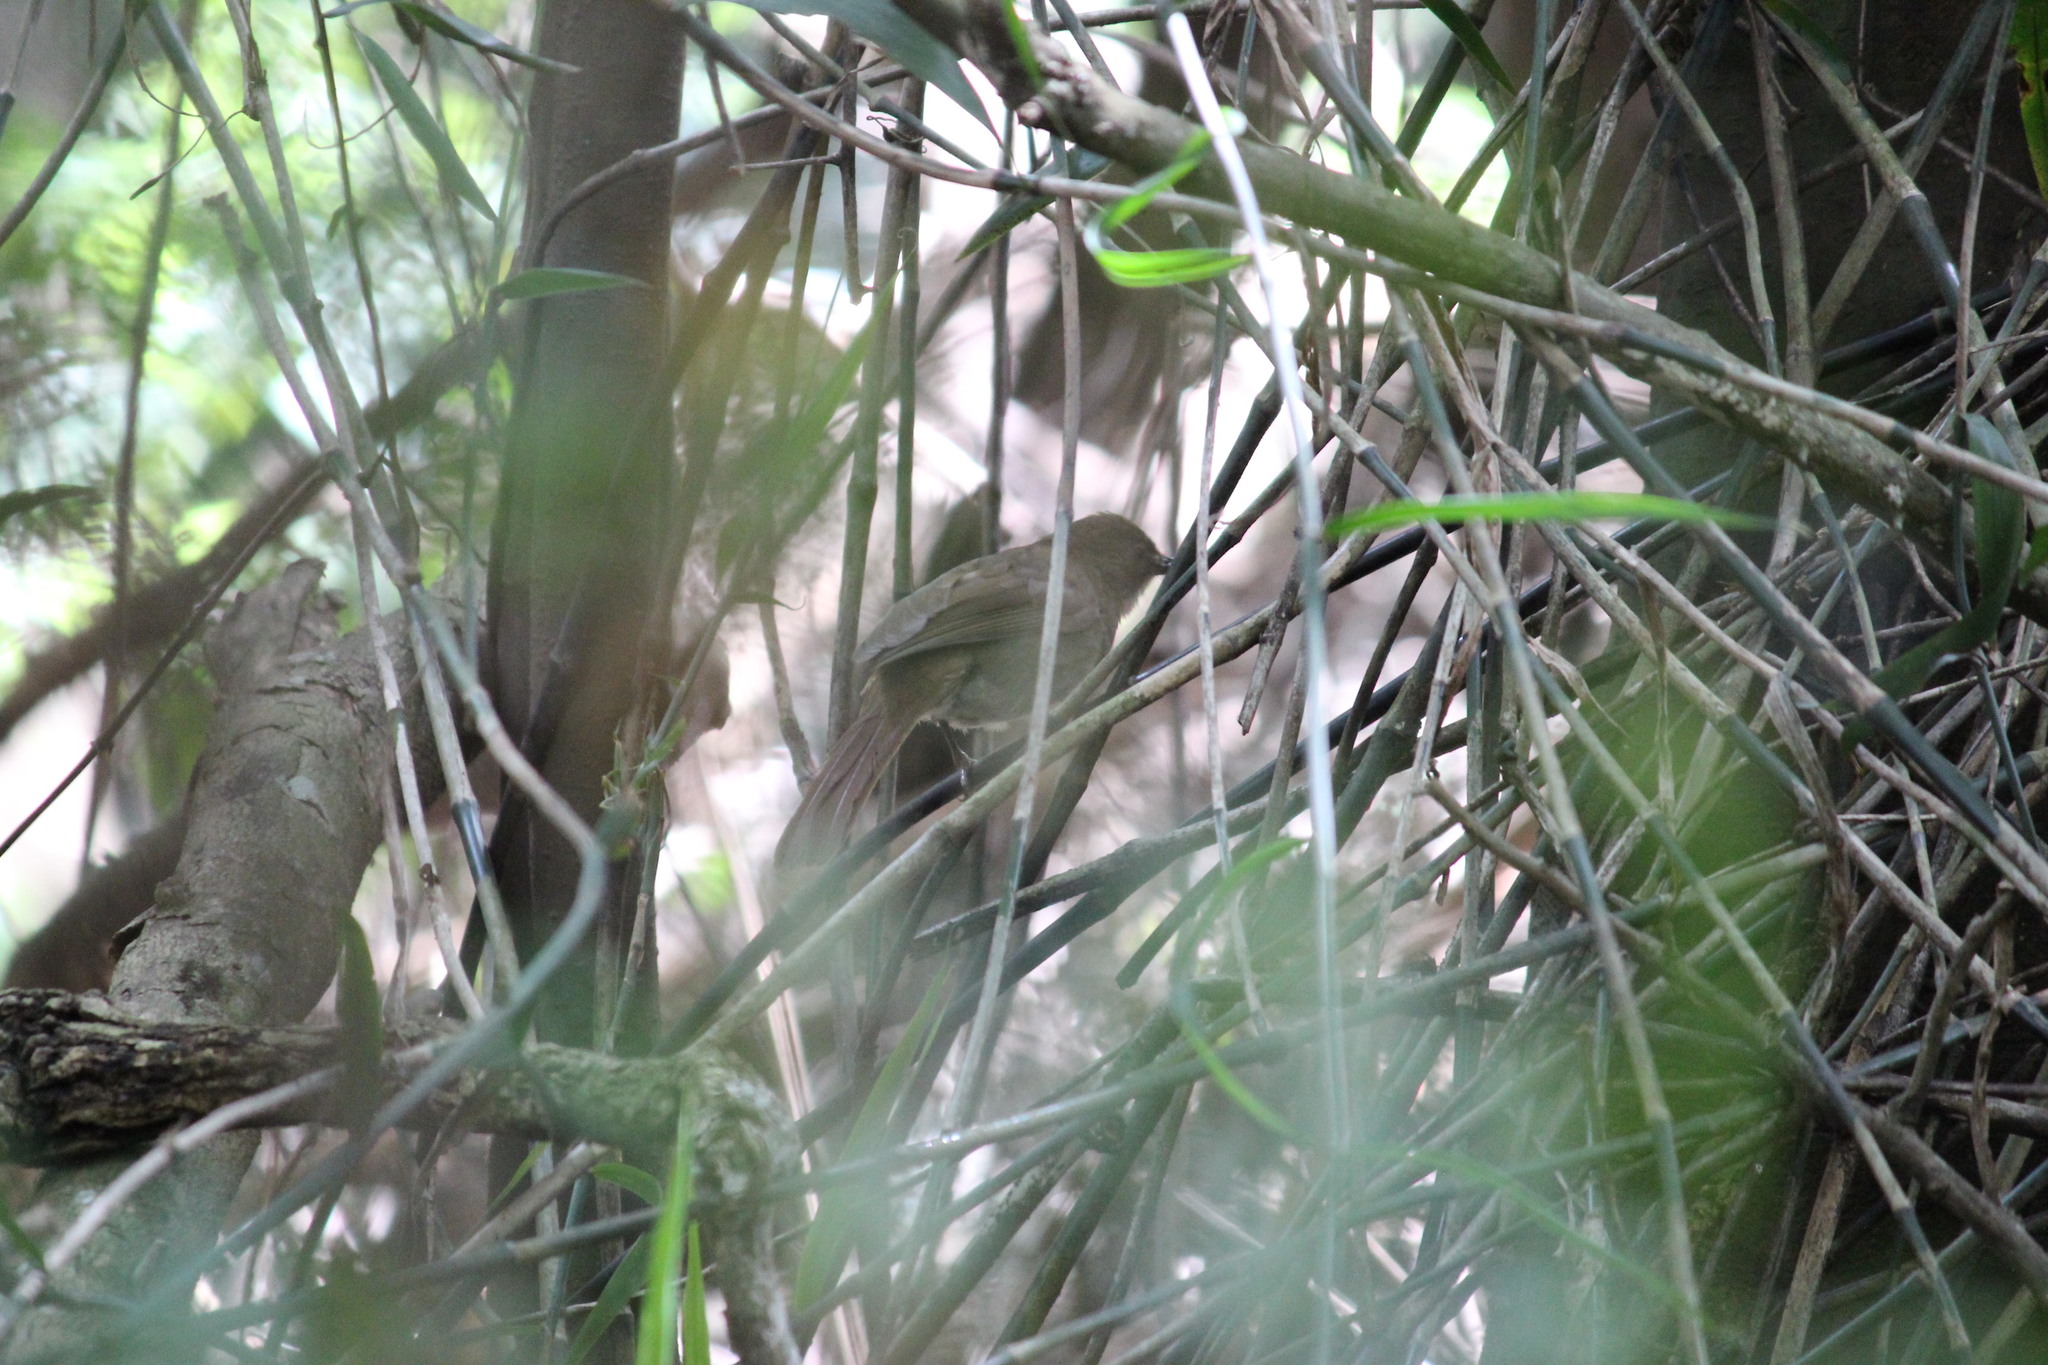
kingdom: Animalia
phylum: Chordata
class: Aves
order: Passeriformes
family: Pycnonotidae
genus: Phyllastrephus
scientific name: Phyllastrephus terrestris
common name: Terrestrial brownbul
